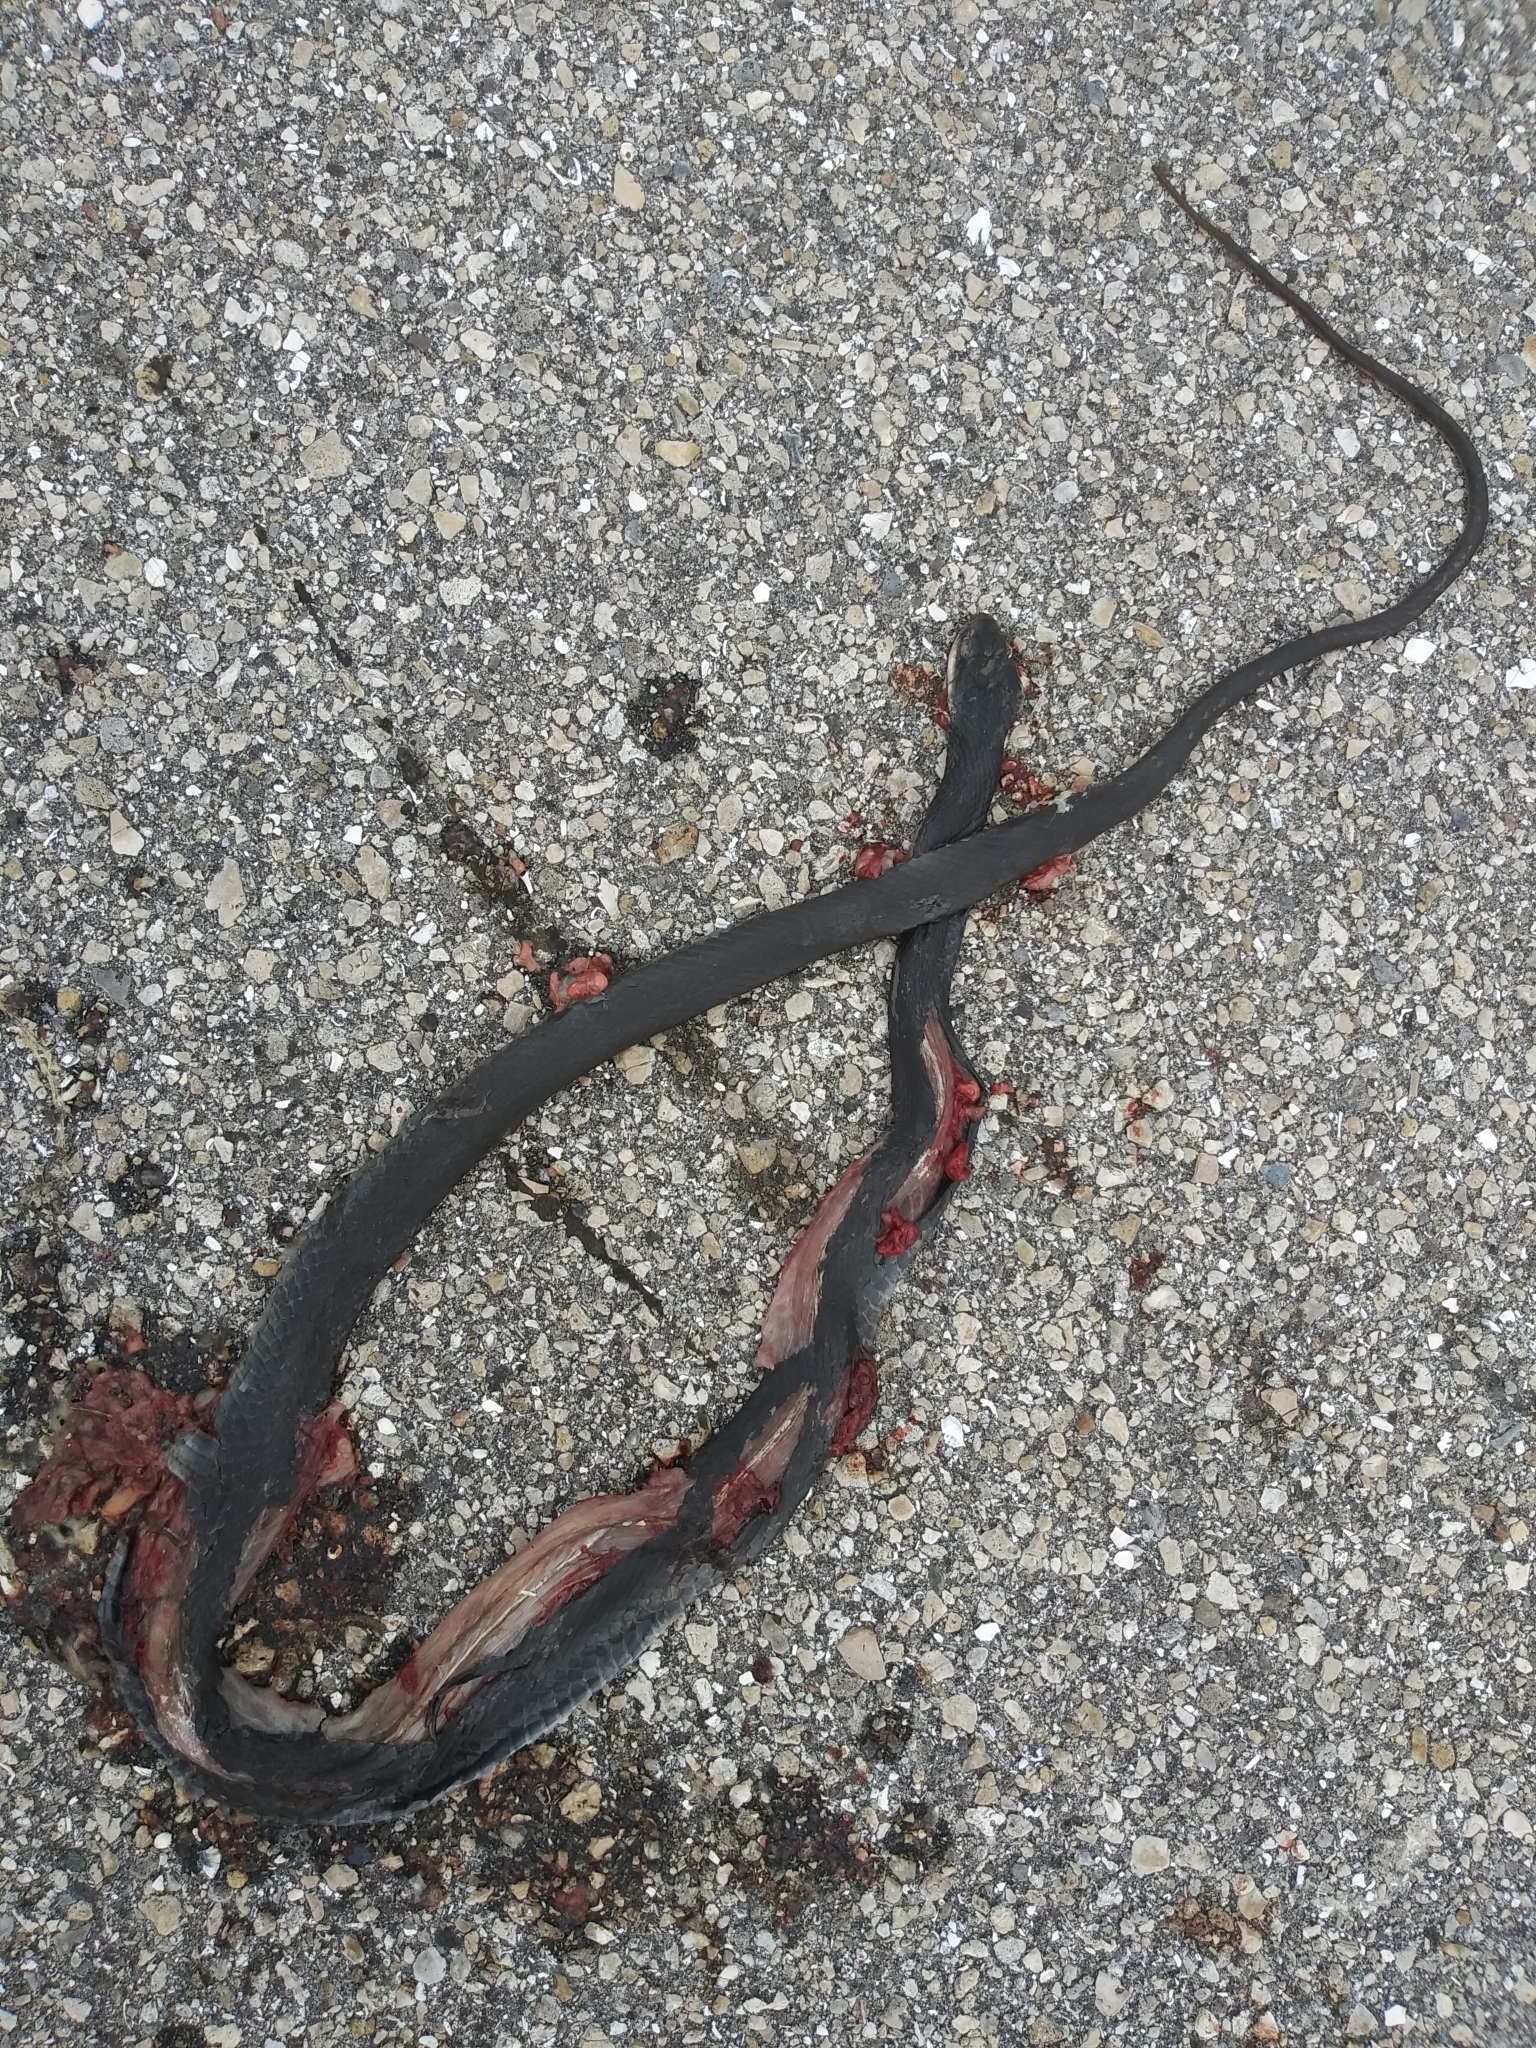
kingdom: Animalia
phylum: Chordata
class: Squamata
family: Colubridae
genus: Coluber
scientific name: Coluber constrictor
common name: Eastern racer
